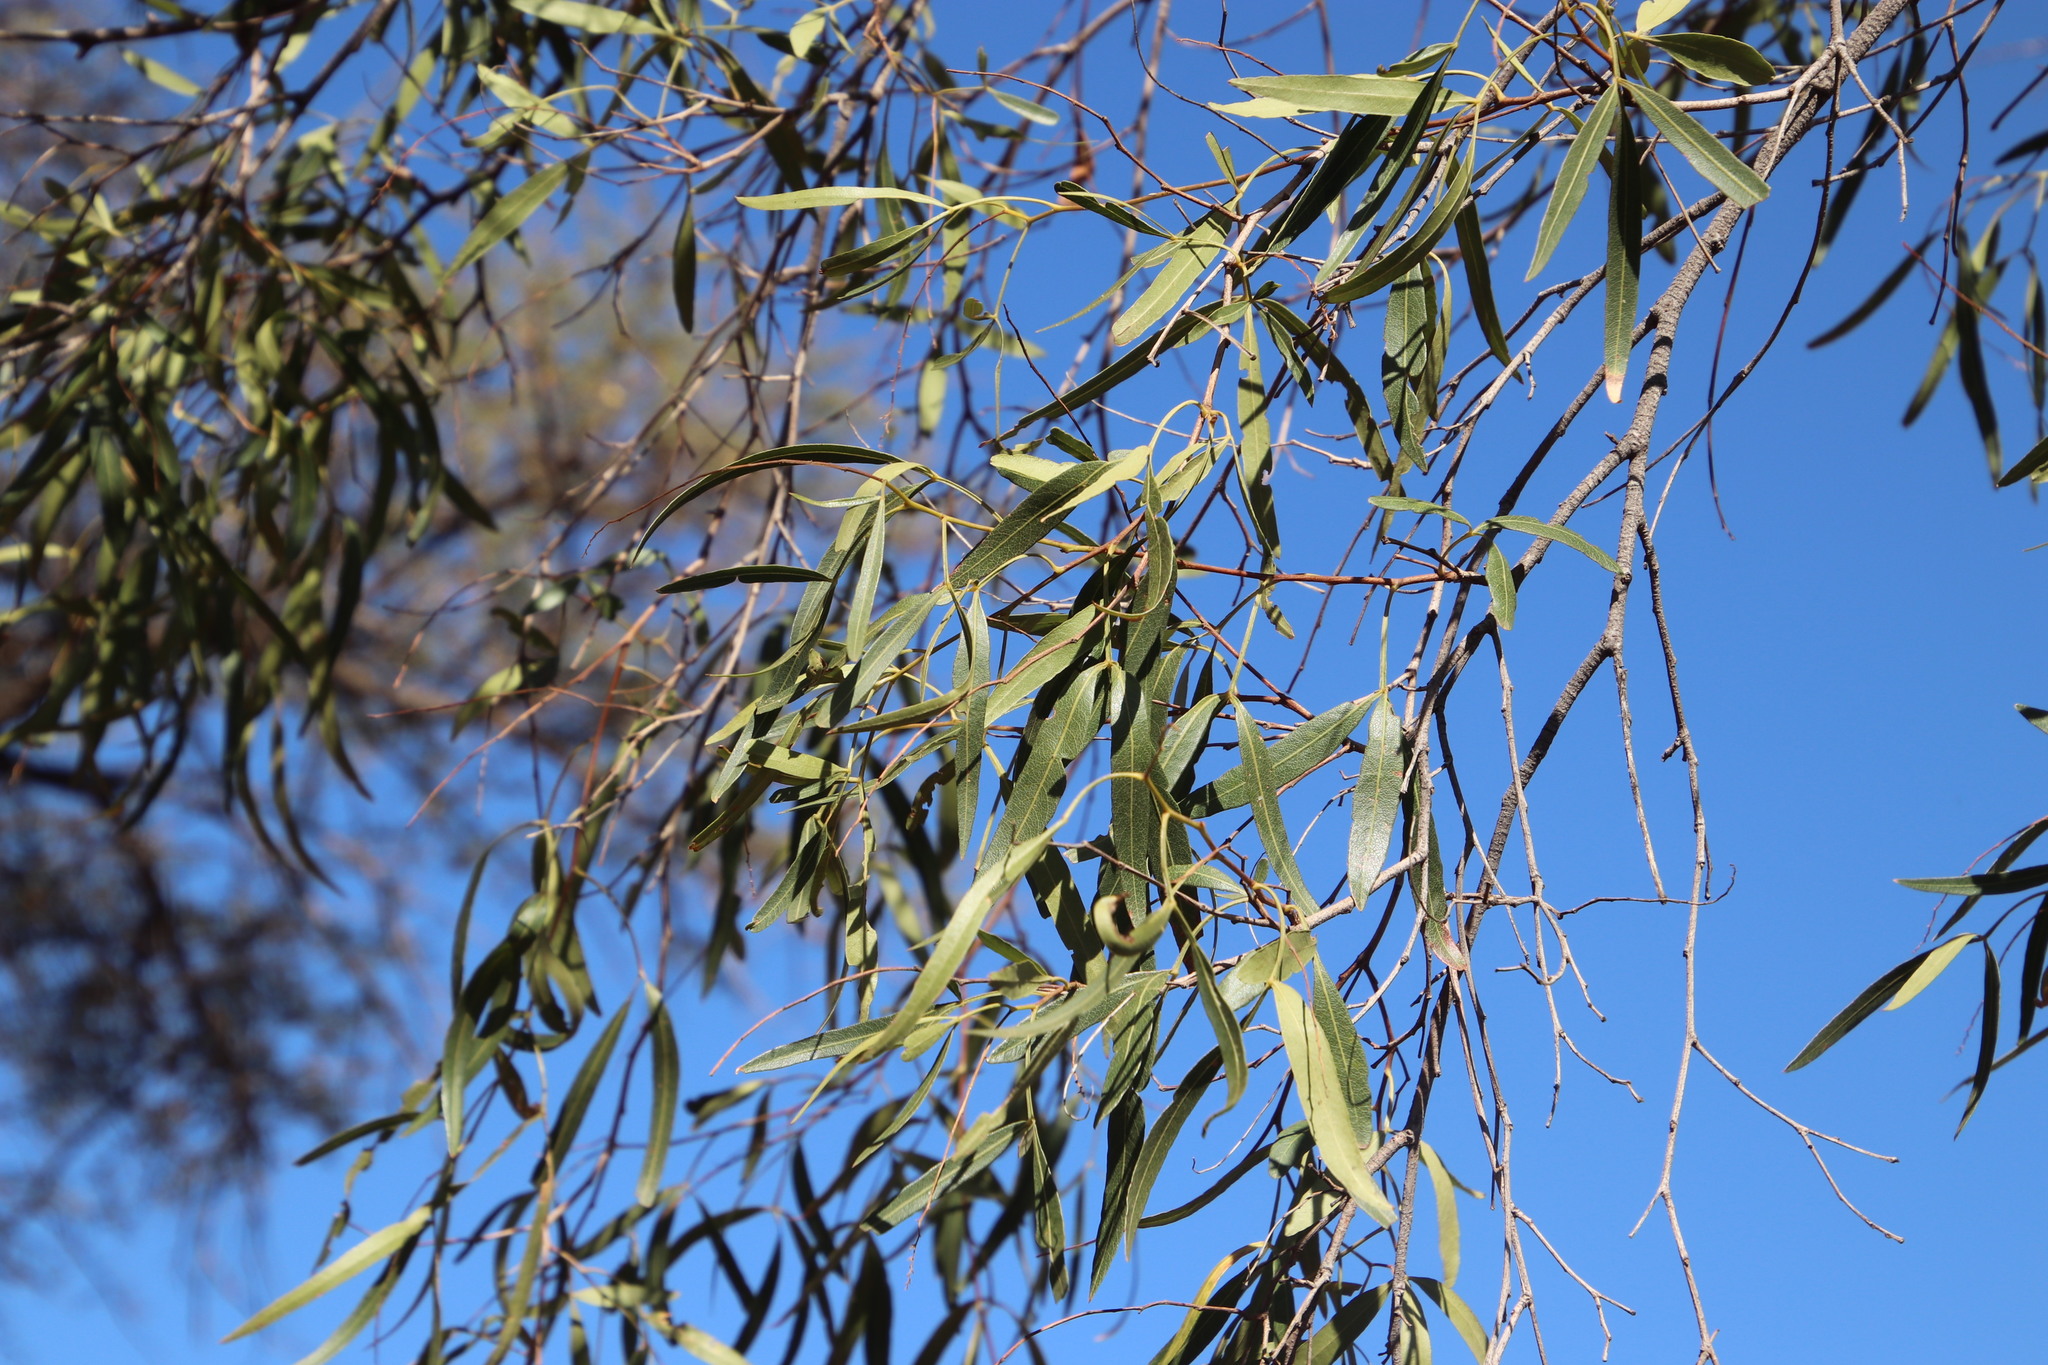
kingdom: Plantae
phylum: Tracheophyta
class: Magnoliopsida
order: Sapindales
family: Anacardiaceae
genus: Searsia
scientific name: Searsia lancea
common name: Cashew
